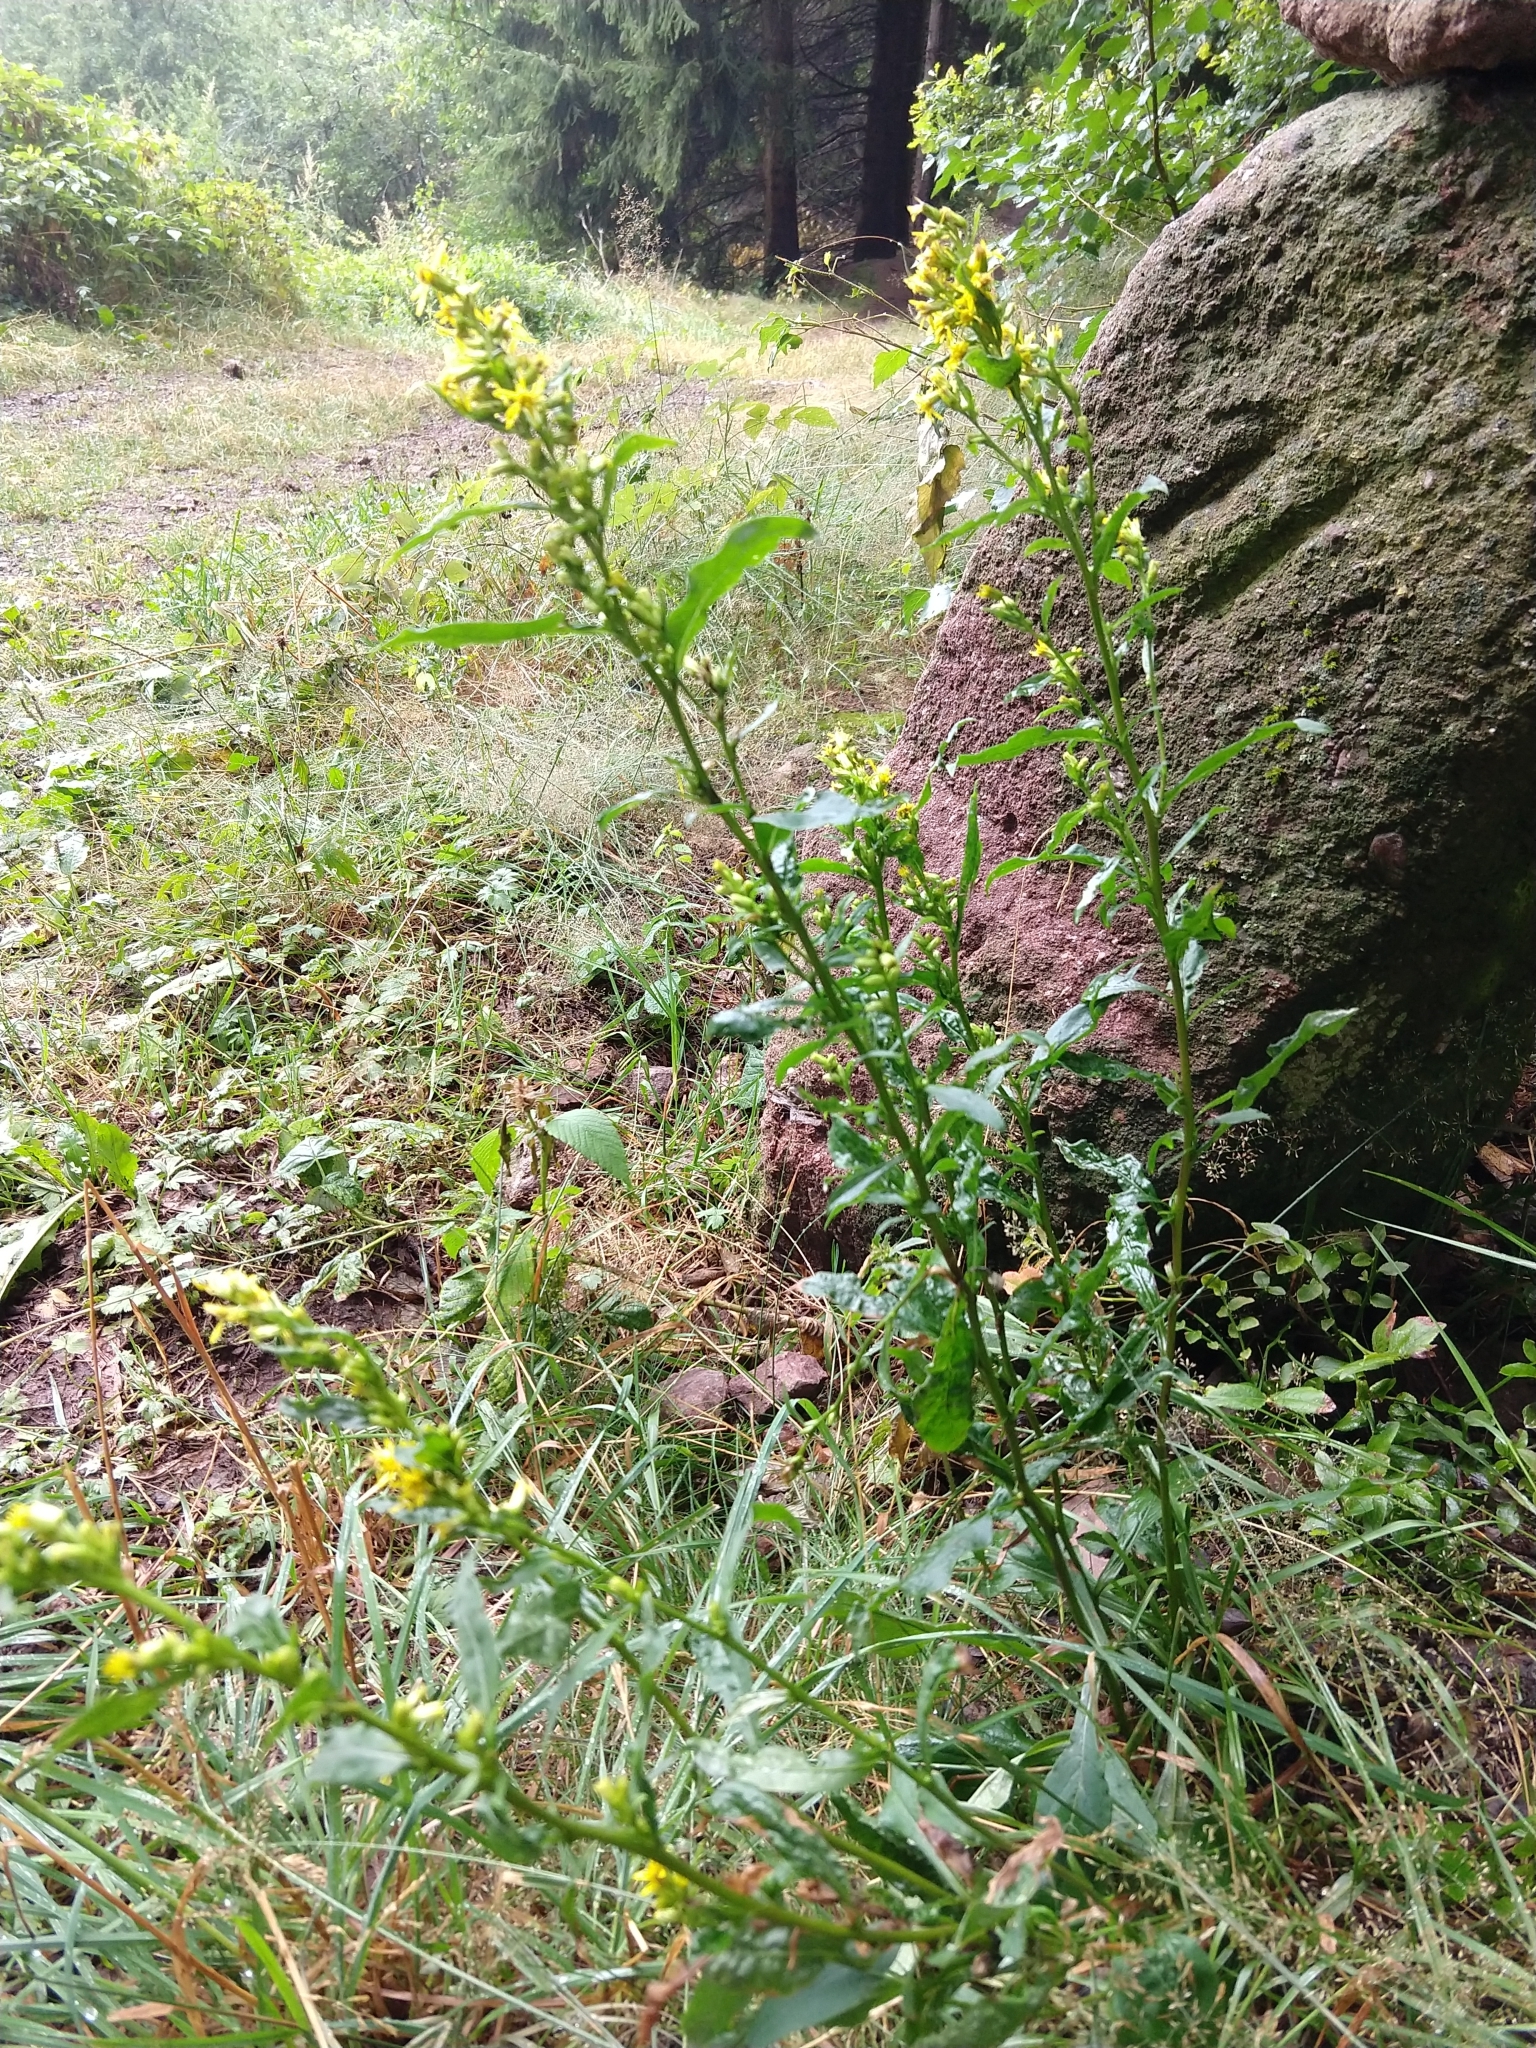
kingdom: Plantae
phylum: Tracheophyta
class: Magnoliopsida
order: Asterales
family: Asteraceae
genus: Solidago
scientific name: Solidago virgaurea
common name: Goldenrod
